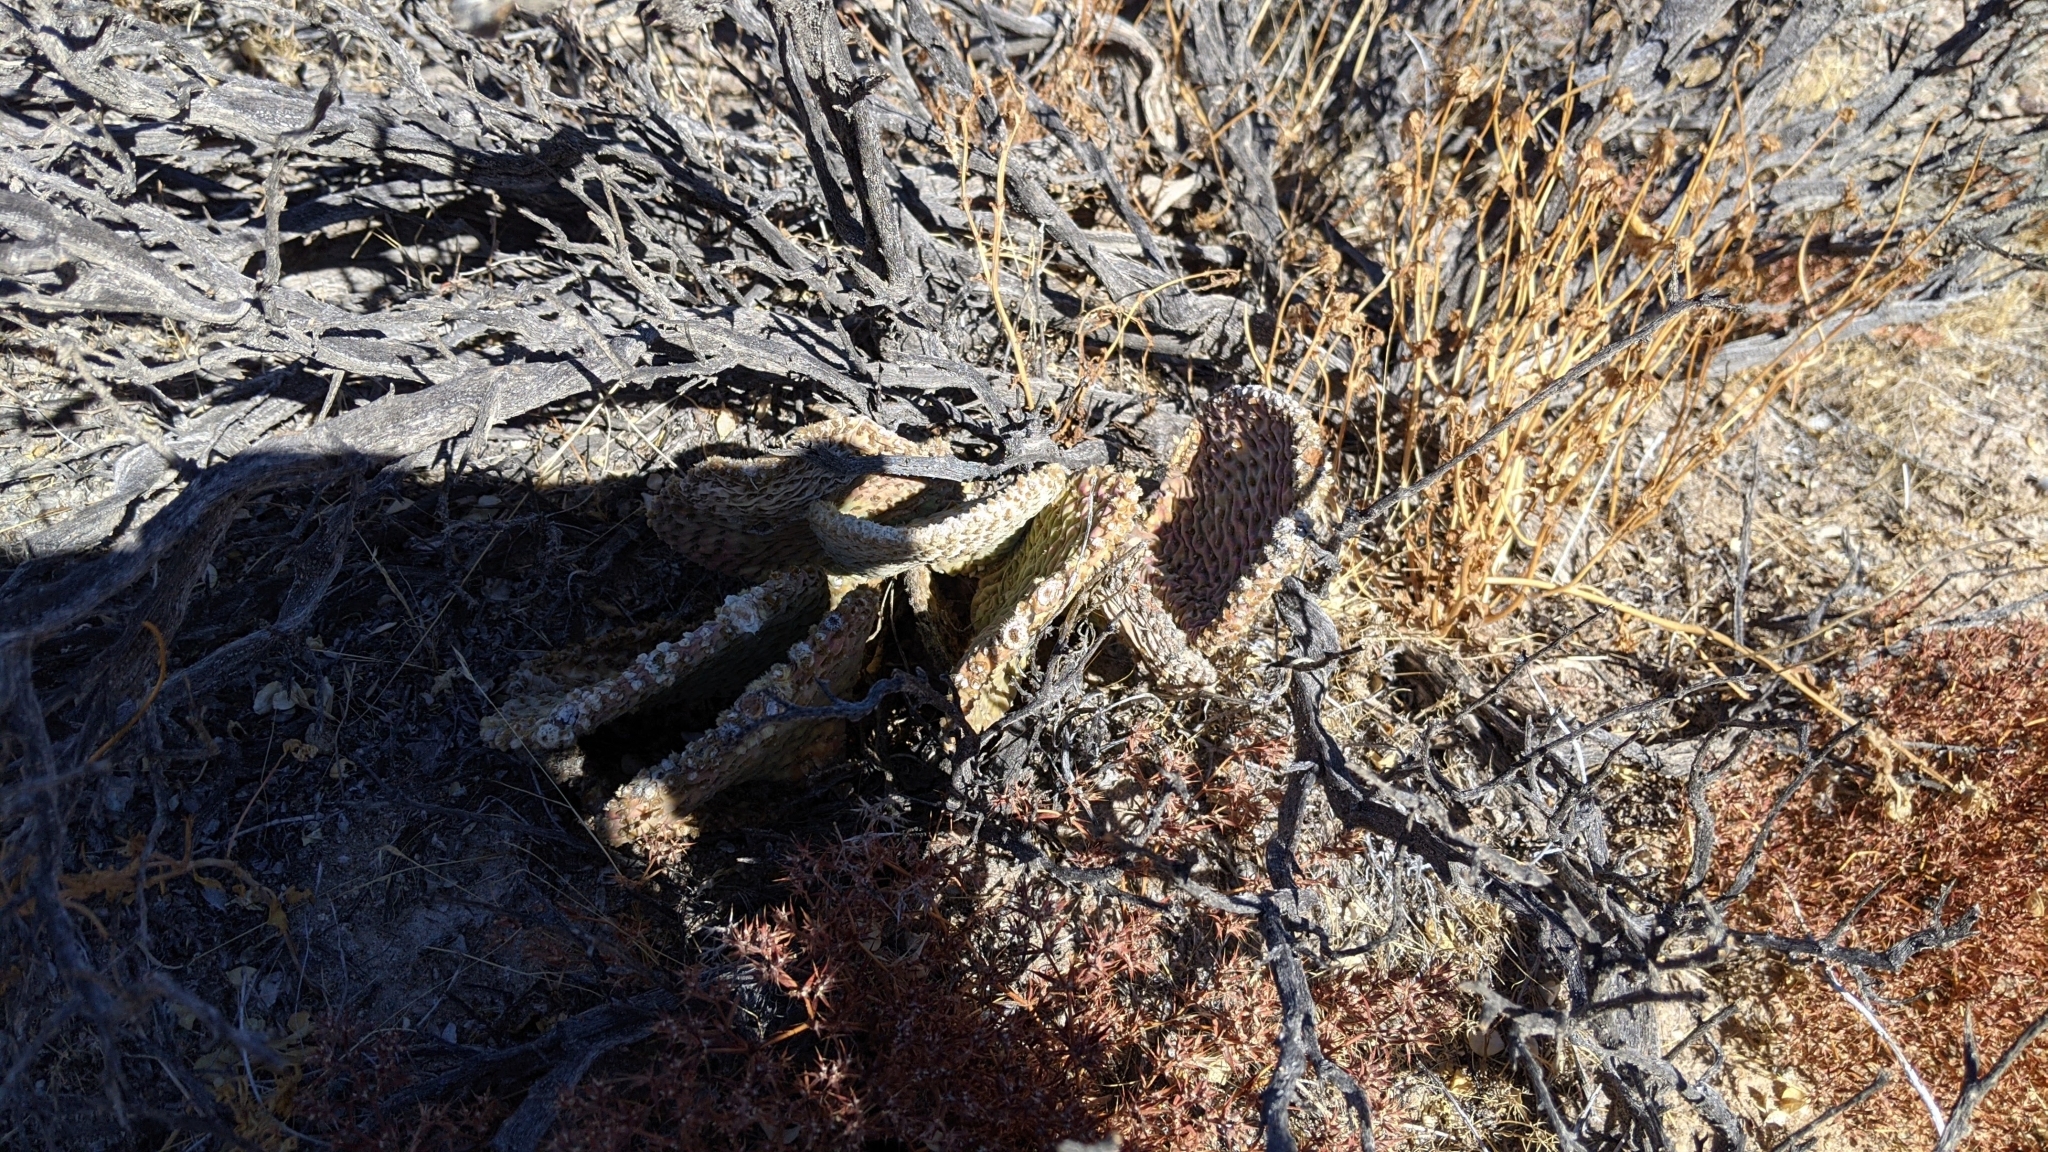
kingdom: Plantae
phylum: Tracheophyta
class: Magnoliopsida
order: Caryophyllales
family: Cactaceae
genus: Opuntia
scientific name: Opuntia basilaris
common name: Beavertail prickly-pear
